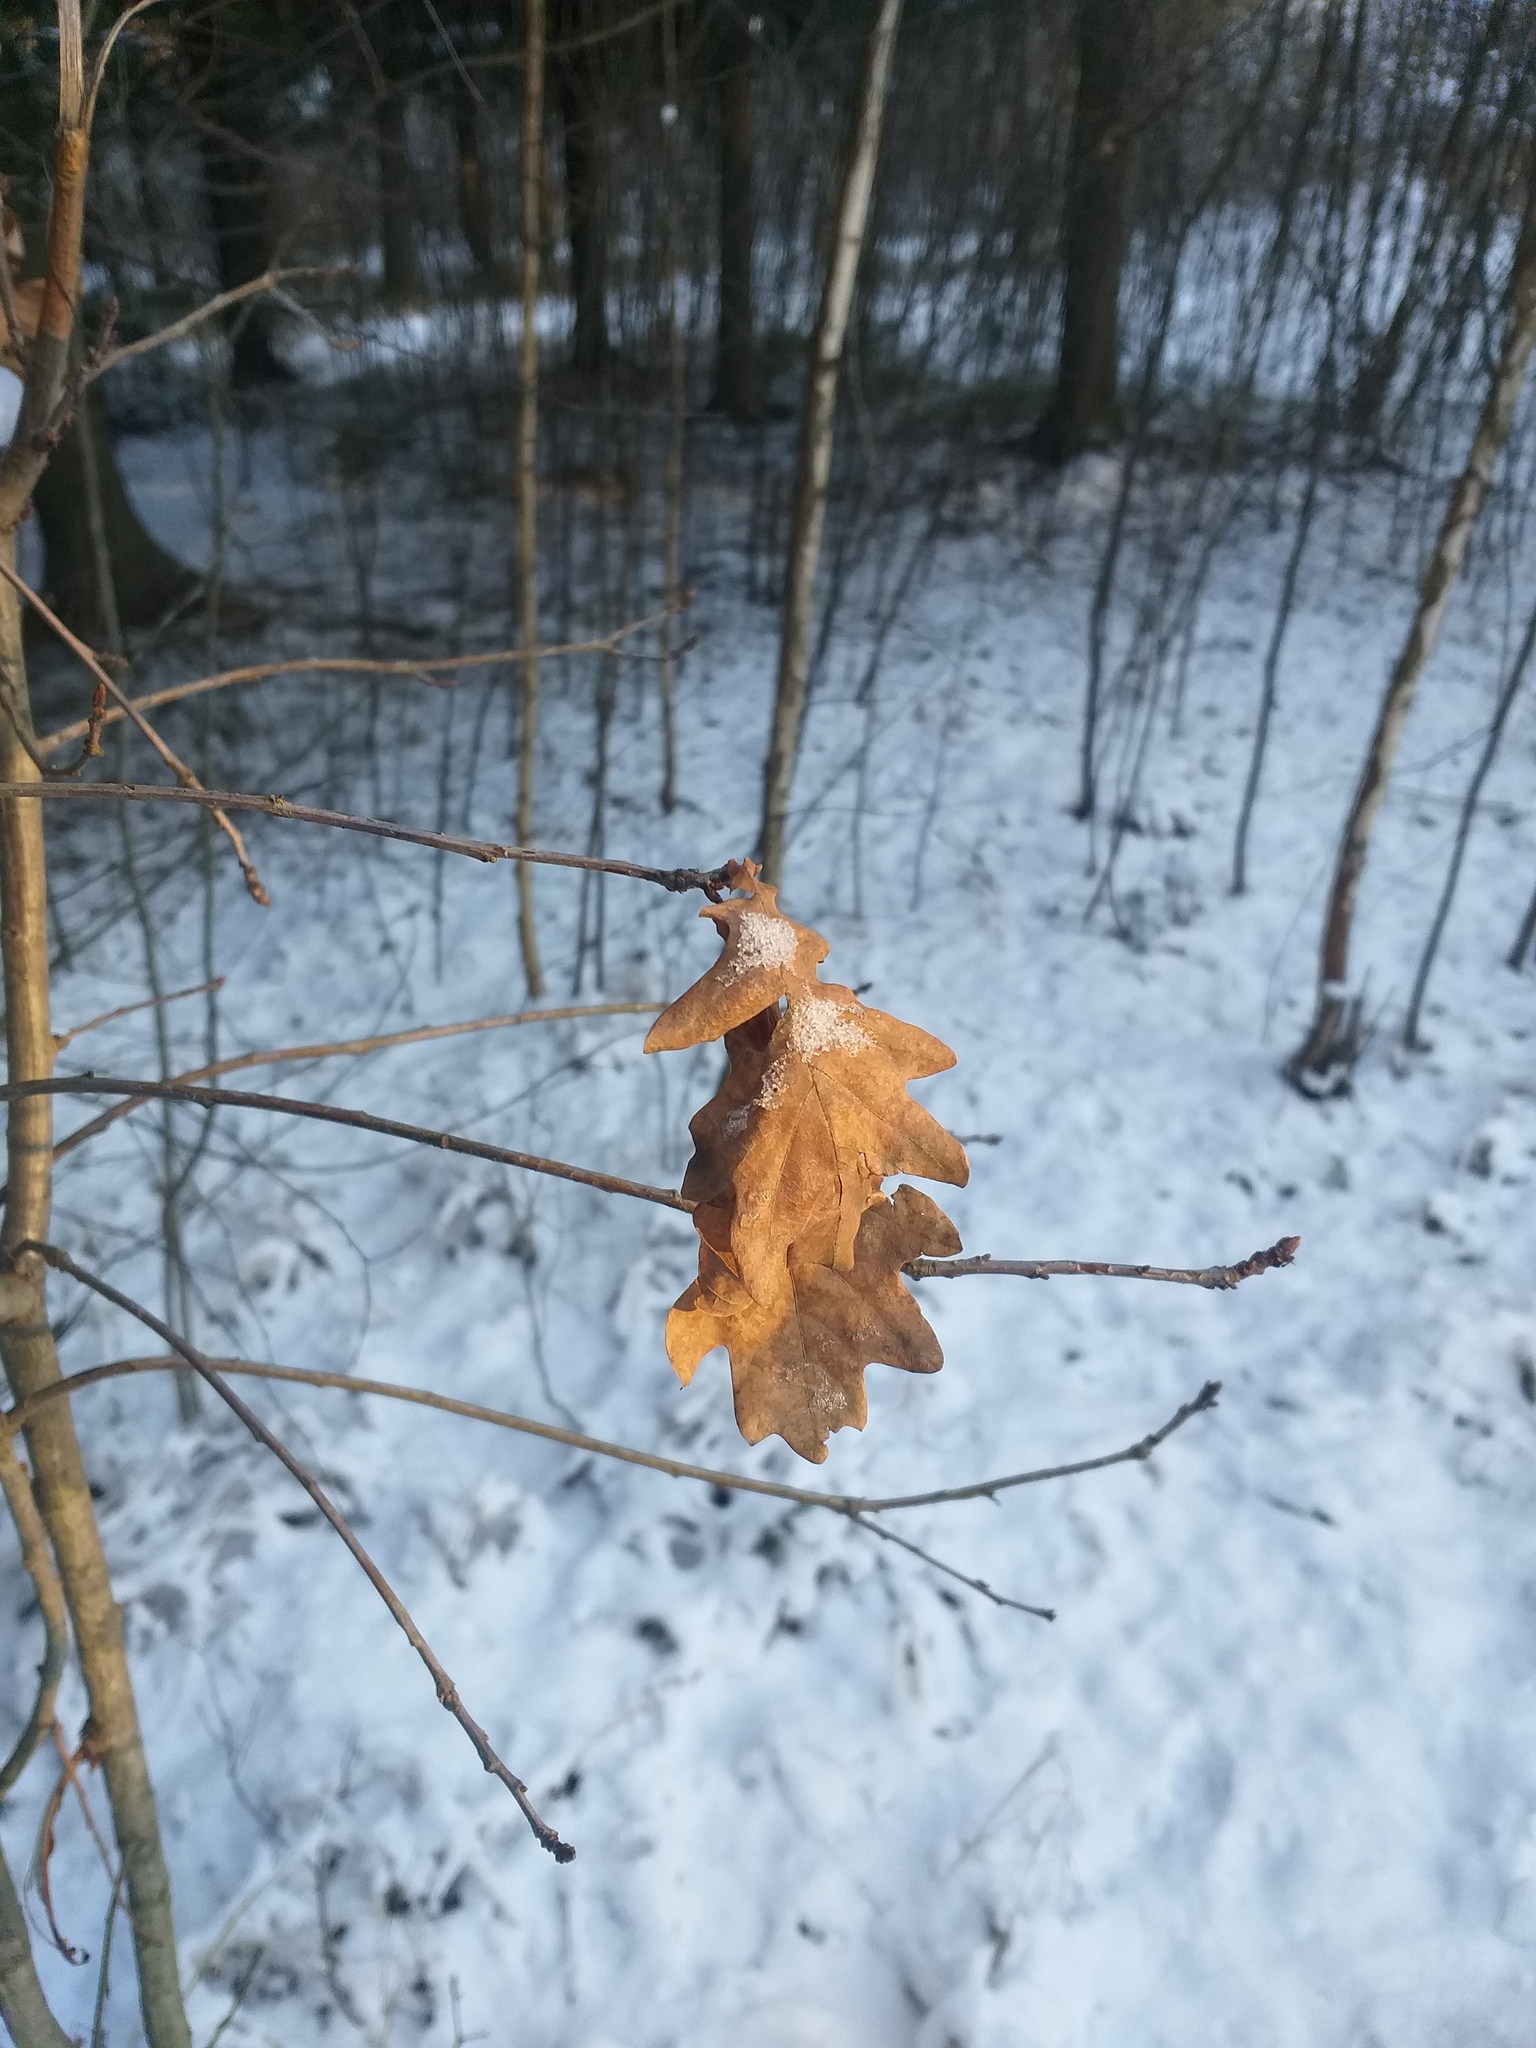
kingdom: Plantae
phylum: Tracheophyta
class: Magnoliopsida
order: Fagales
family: Fagaceae
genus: Quercus
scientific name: Quercus robur
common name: Pedunculate oak
